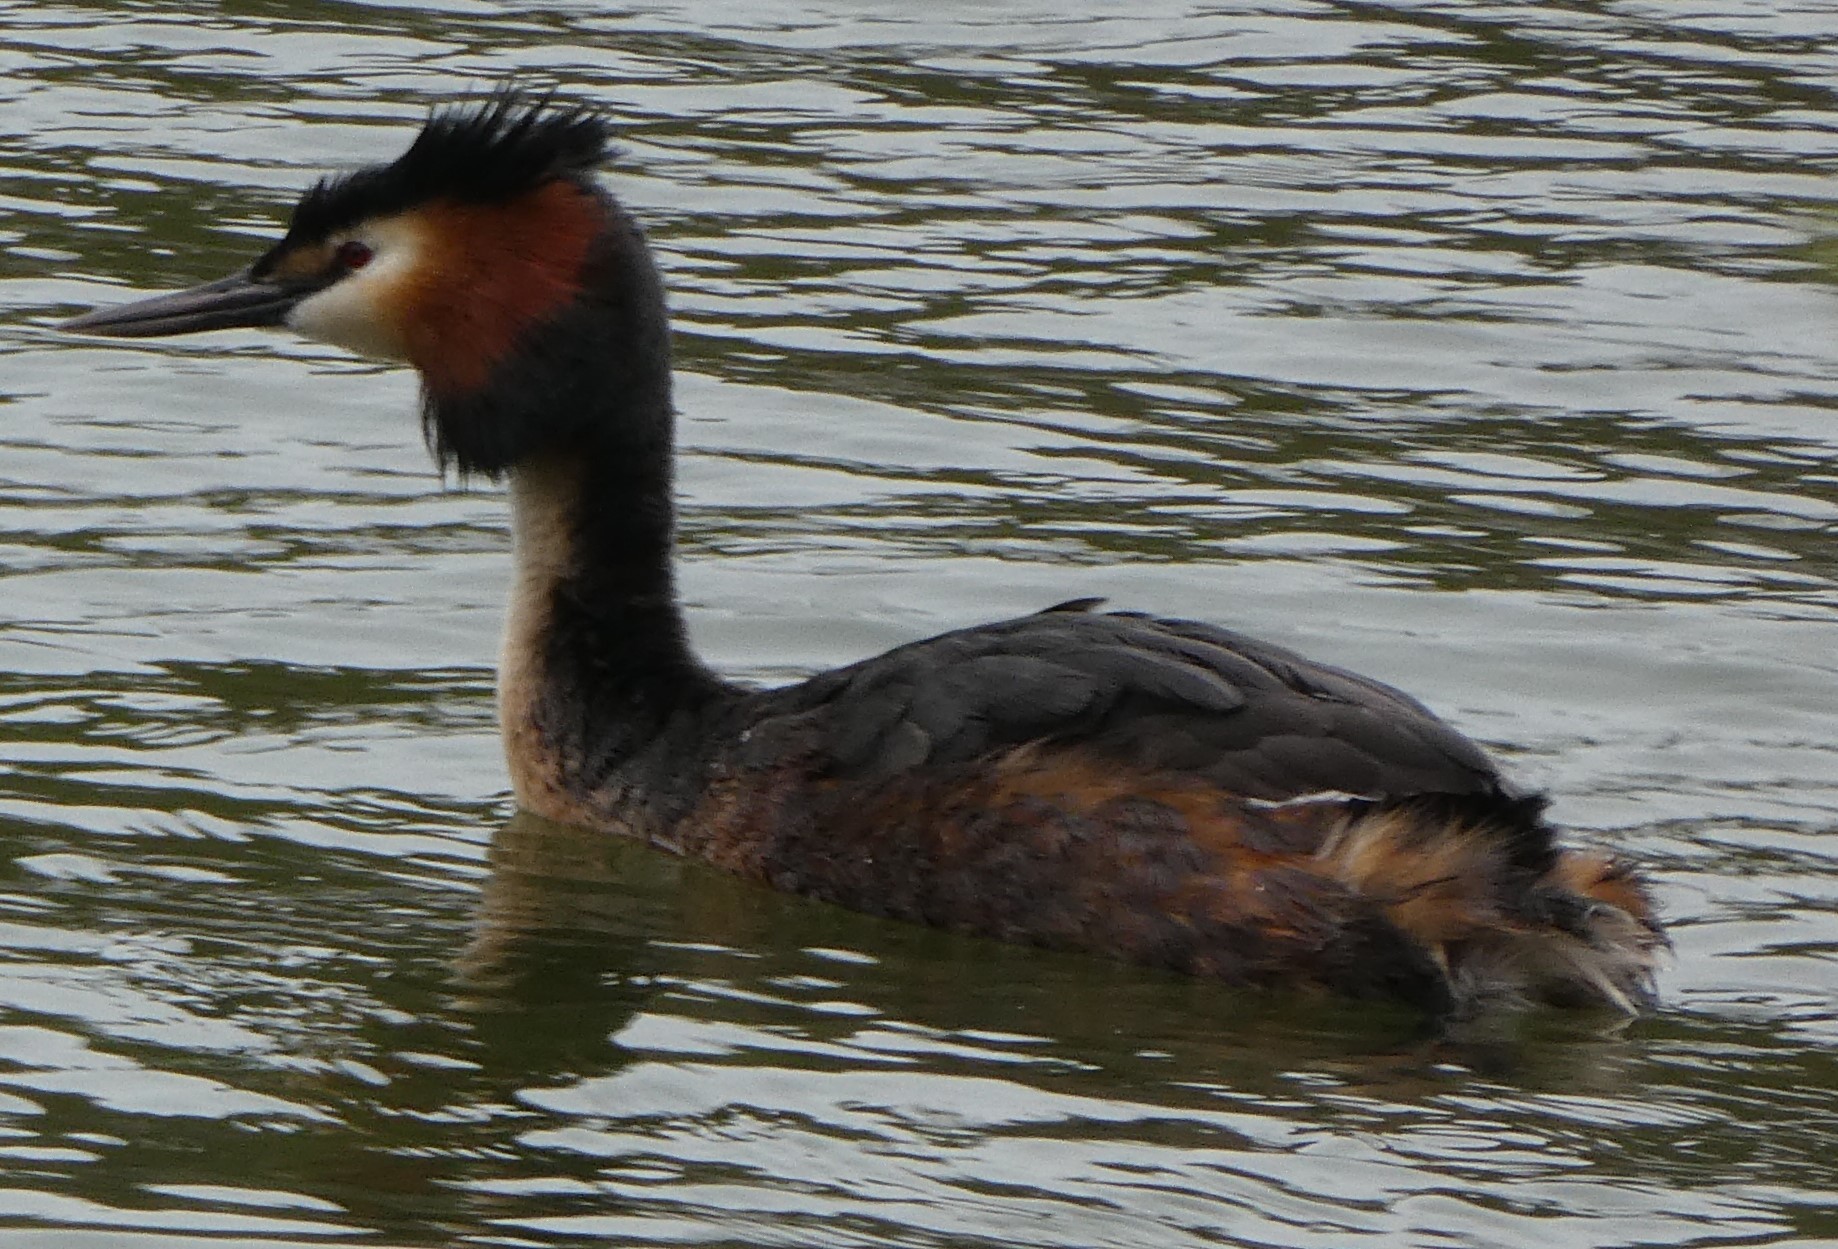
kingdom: Animalia
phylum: Chordata
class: Aves
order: Podicipediformes
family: Podicipedidae
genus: Podiceps
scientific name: Podiceps cristatus
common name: Great crested grebe
